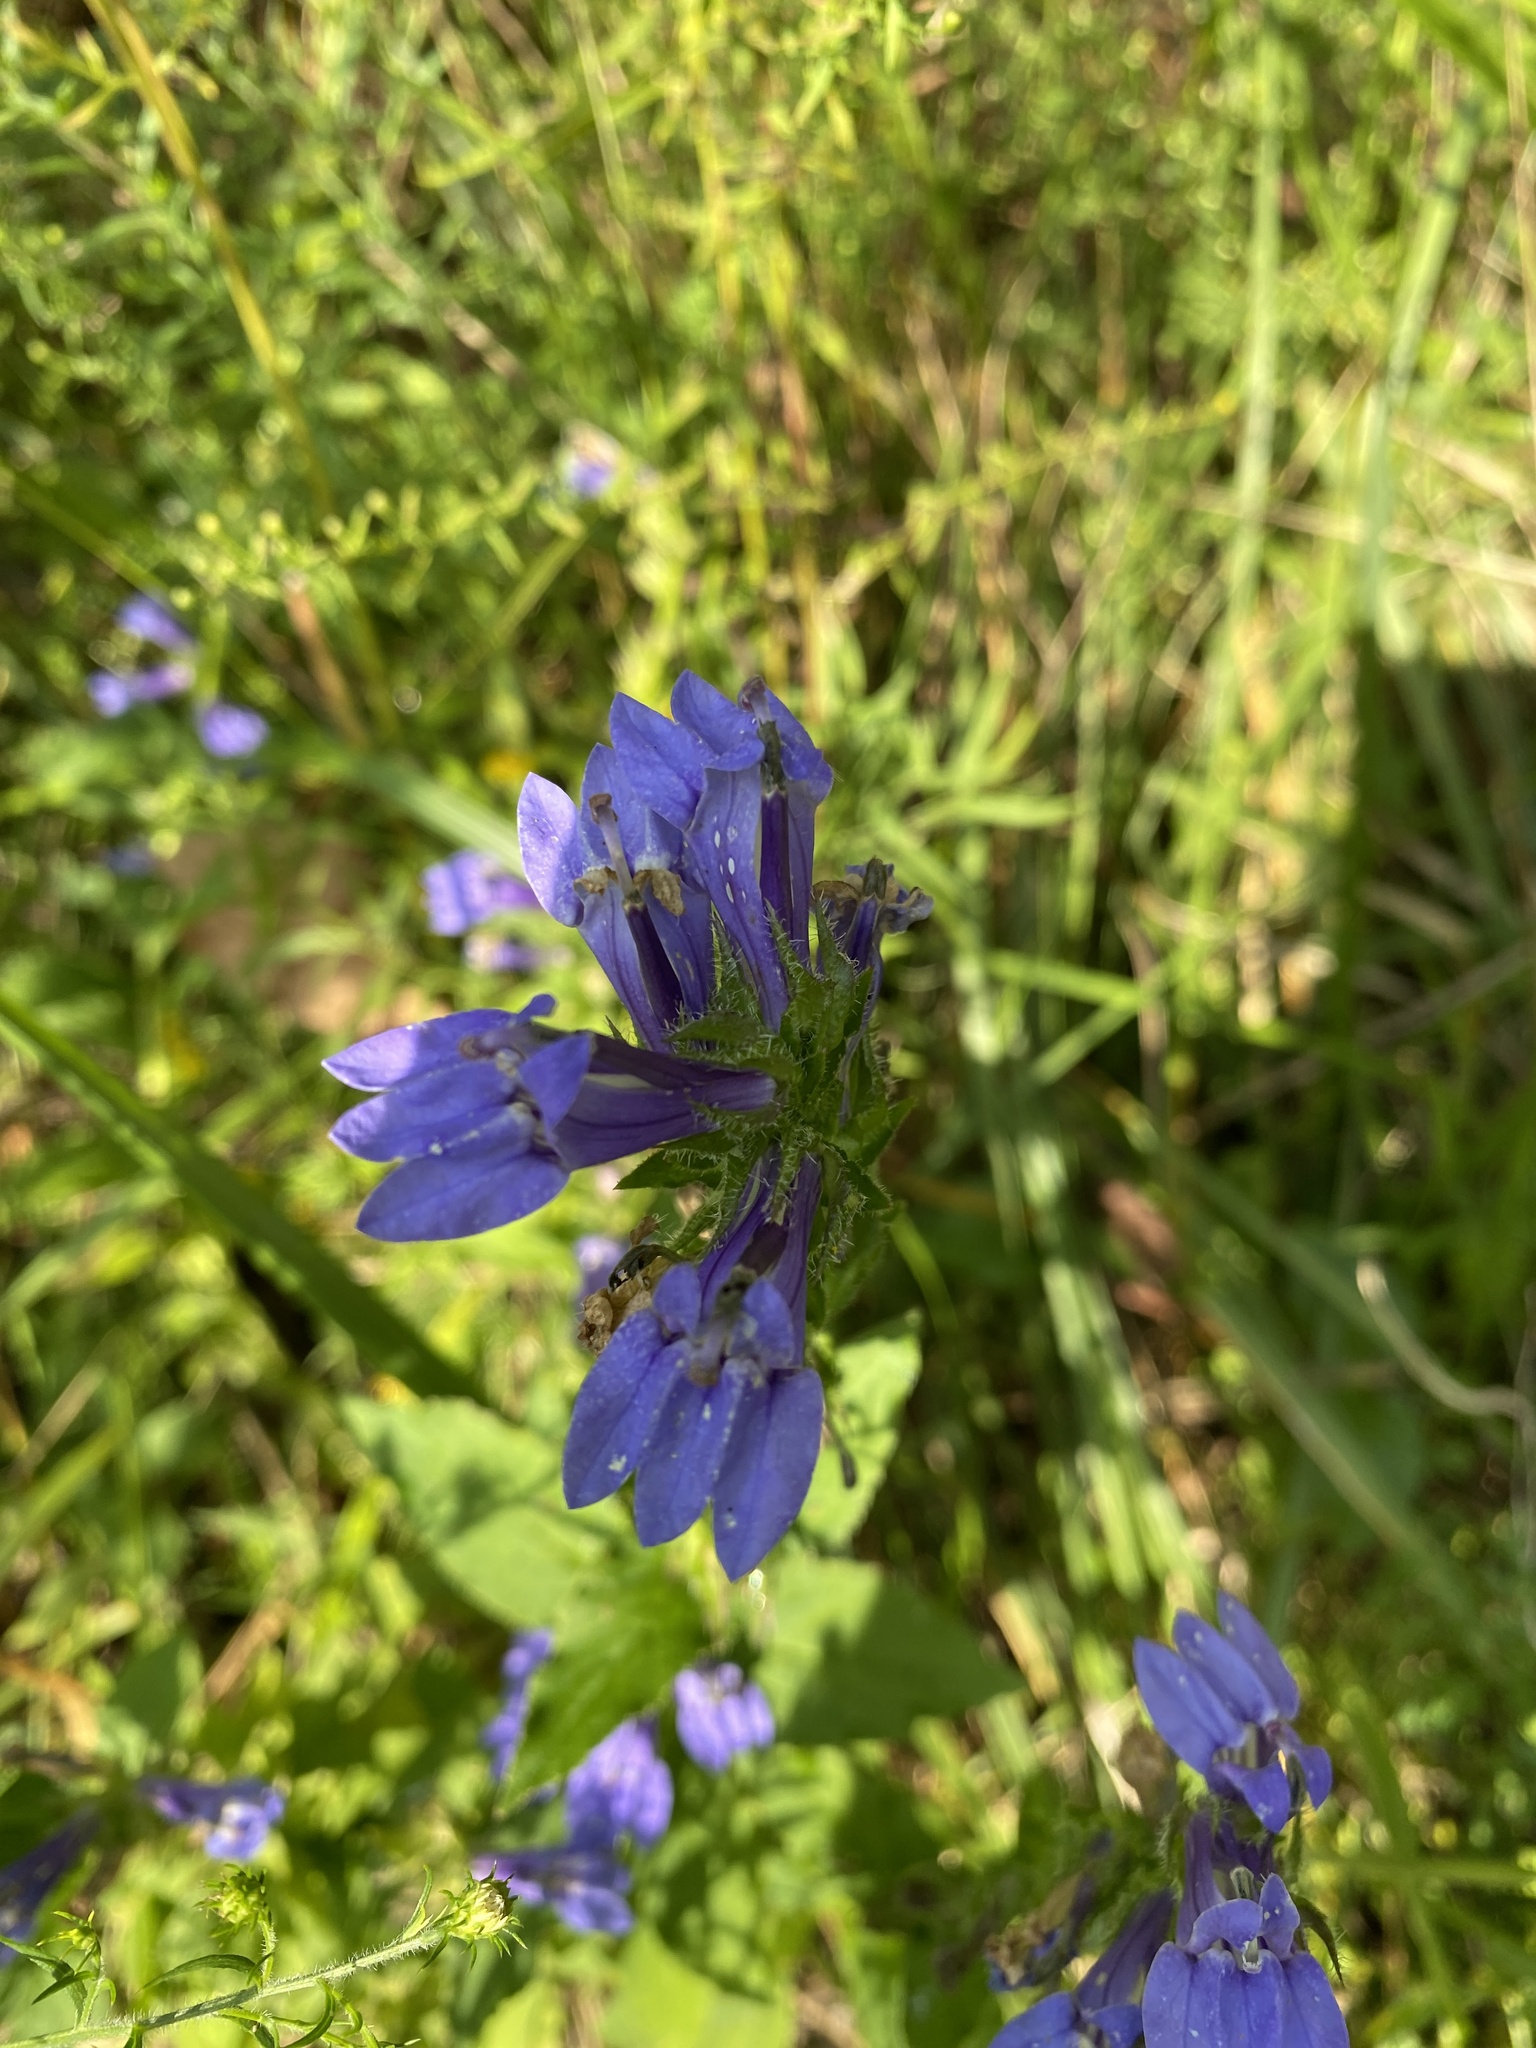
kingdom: Plantae
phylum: Tracheophyta
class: Magnoliopsida
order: Asterales
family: Campanulaceae
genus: Lobelia
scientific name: Lobelia siphilitica
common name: Great lobelia
